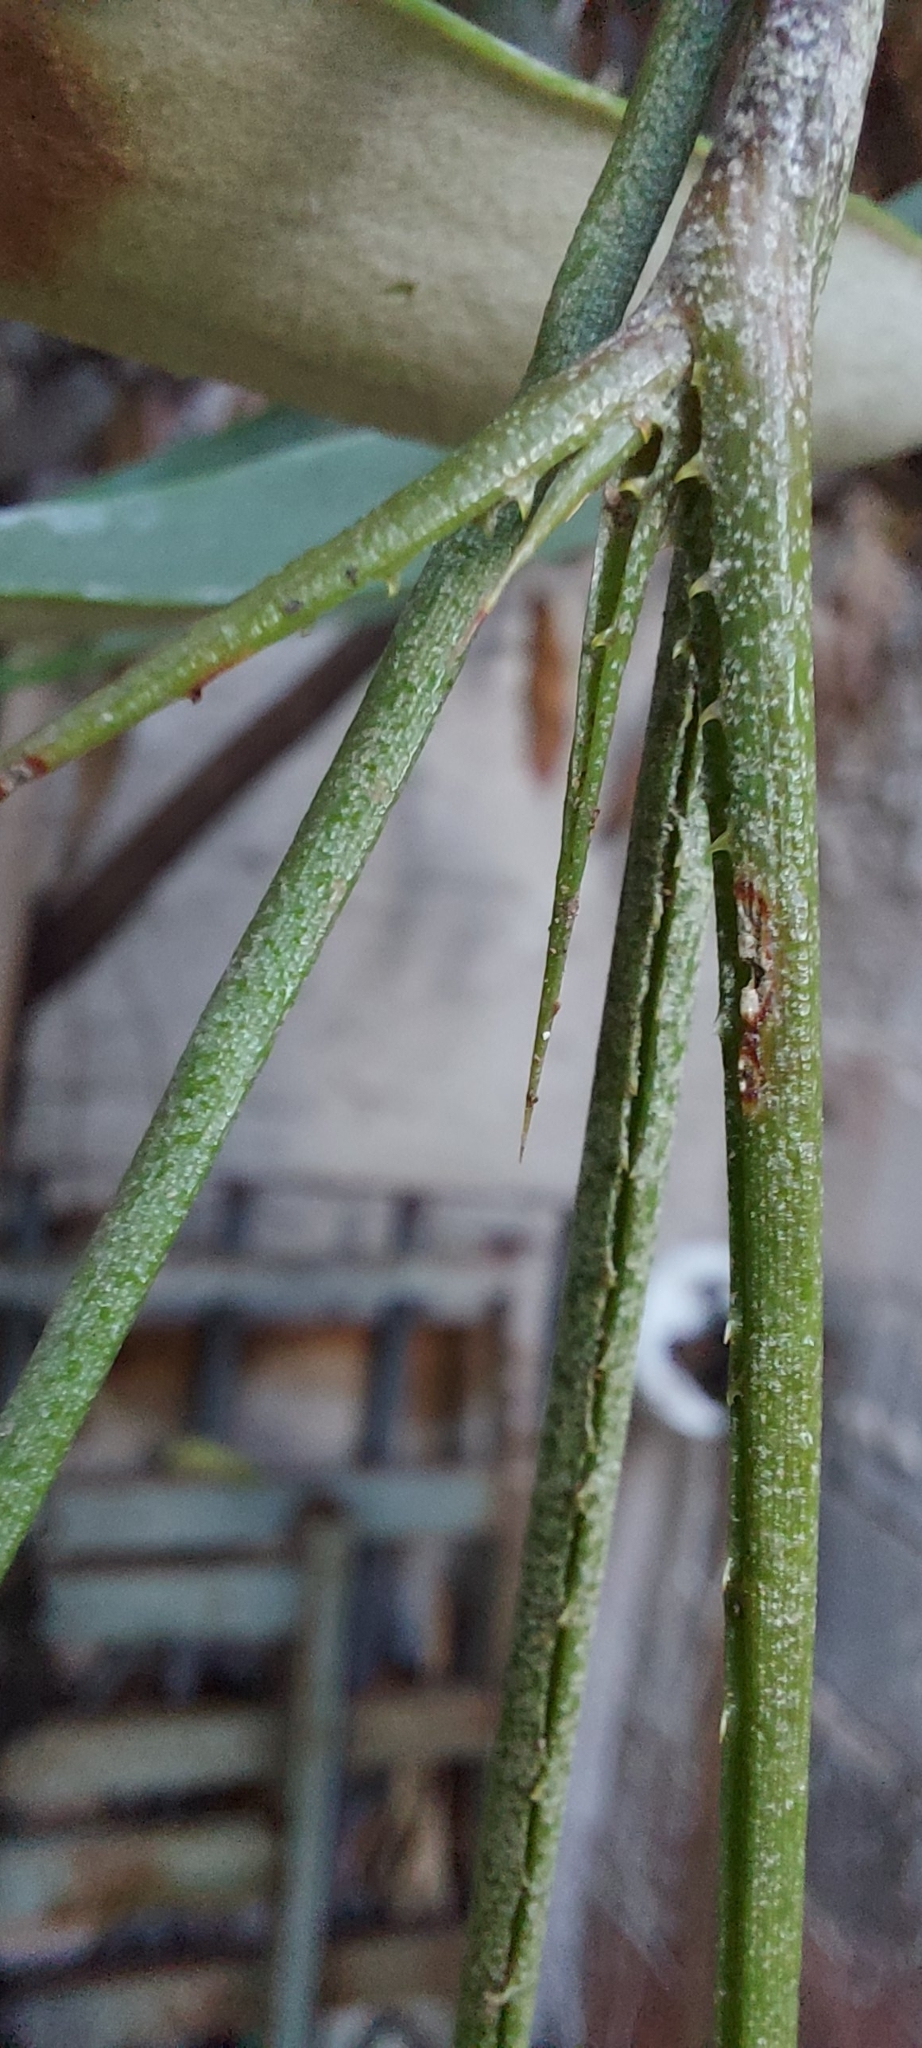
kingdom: Plantae
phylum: Tracheophyta
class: Liliopsida
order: Poales
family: Bromeliaceae
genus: Acanthostachys
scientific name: Acanthostachys strobilacea
